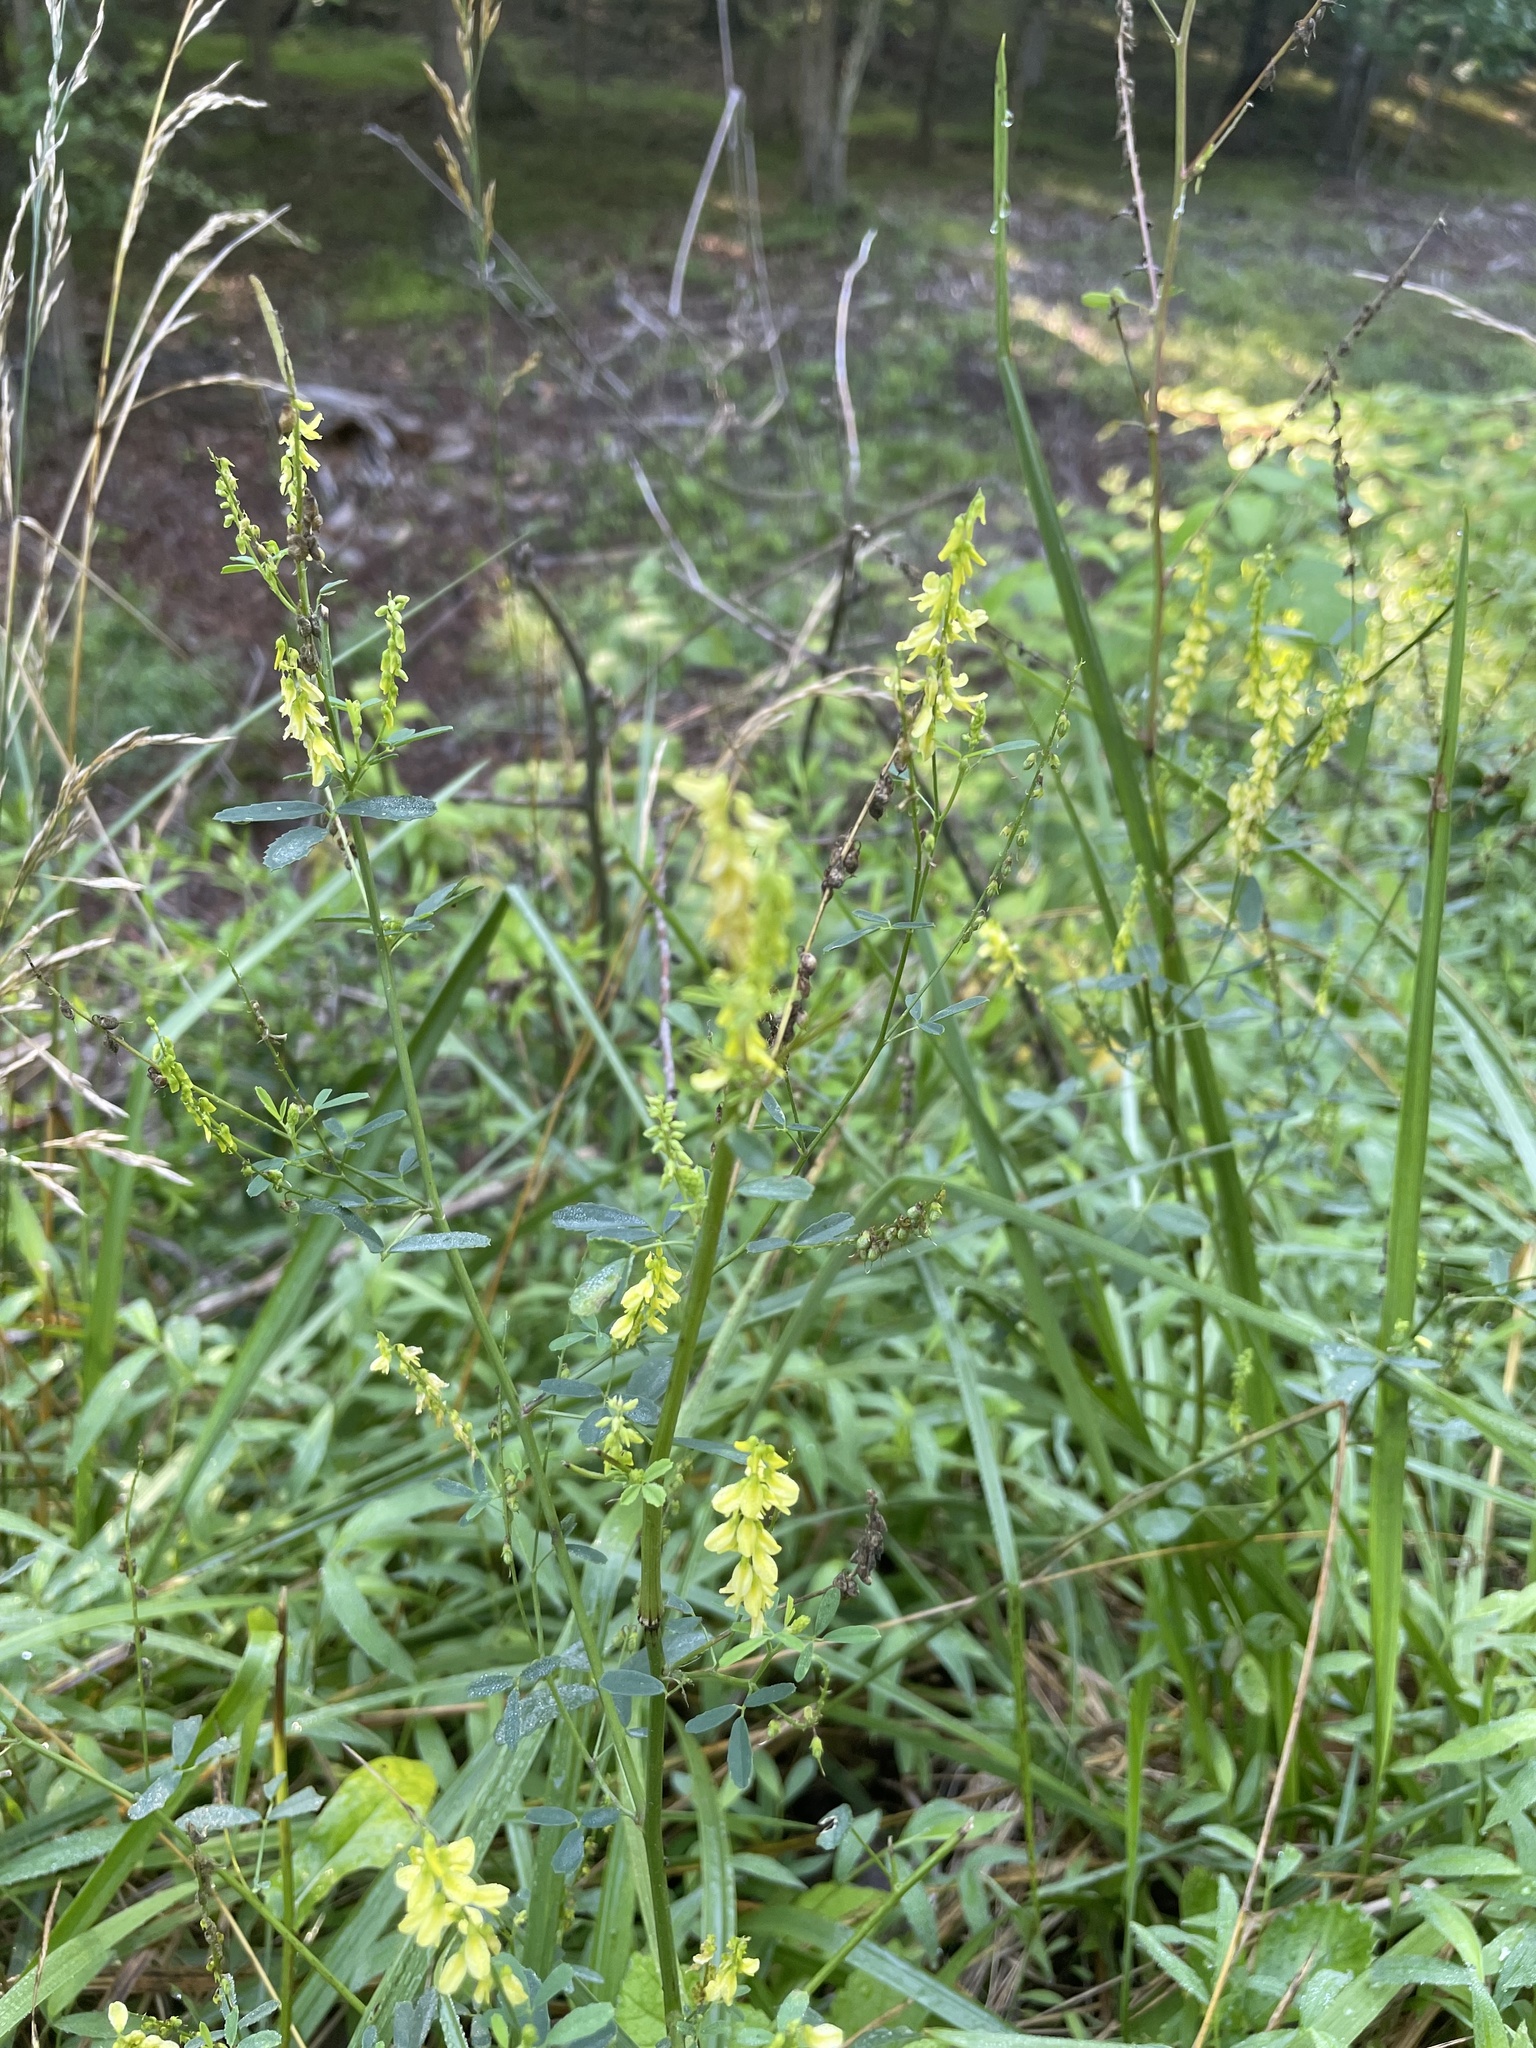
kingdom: Plantae
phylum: Tracheophyta
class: Magnoliopsida
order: Fabales
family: Fabaceae
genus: Melilotus
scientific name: Melilotus officinalis
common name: Sweetclover
